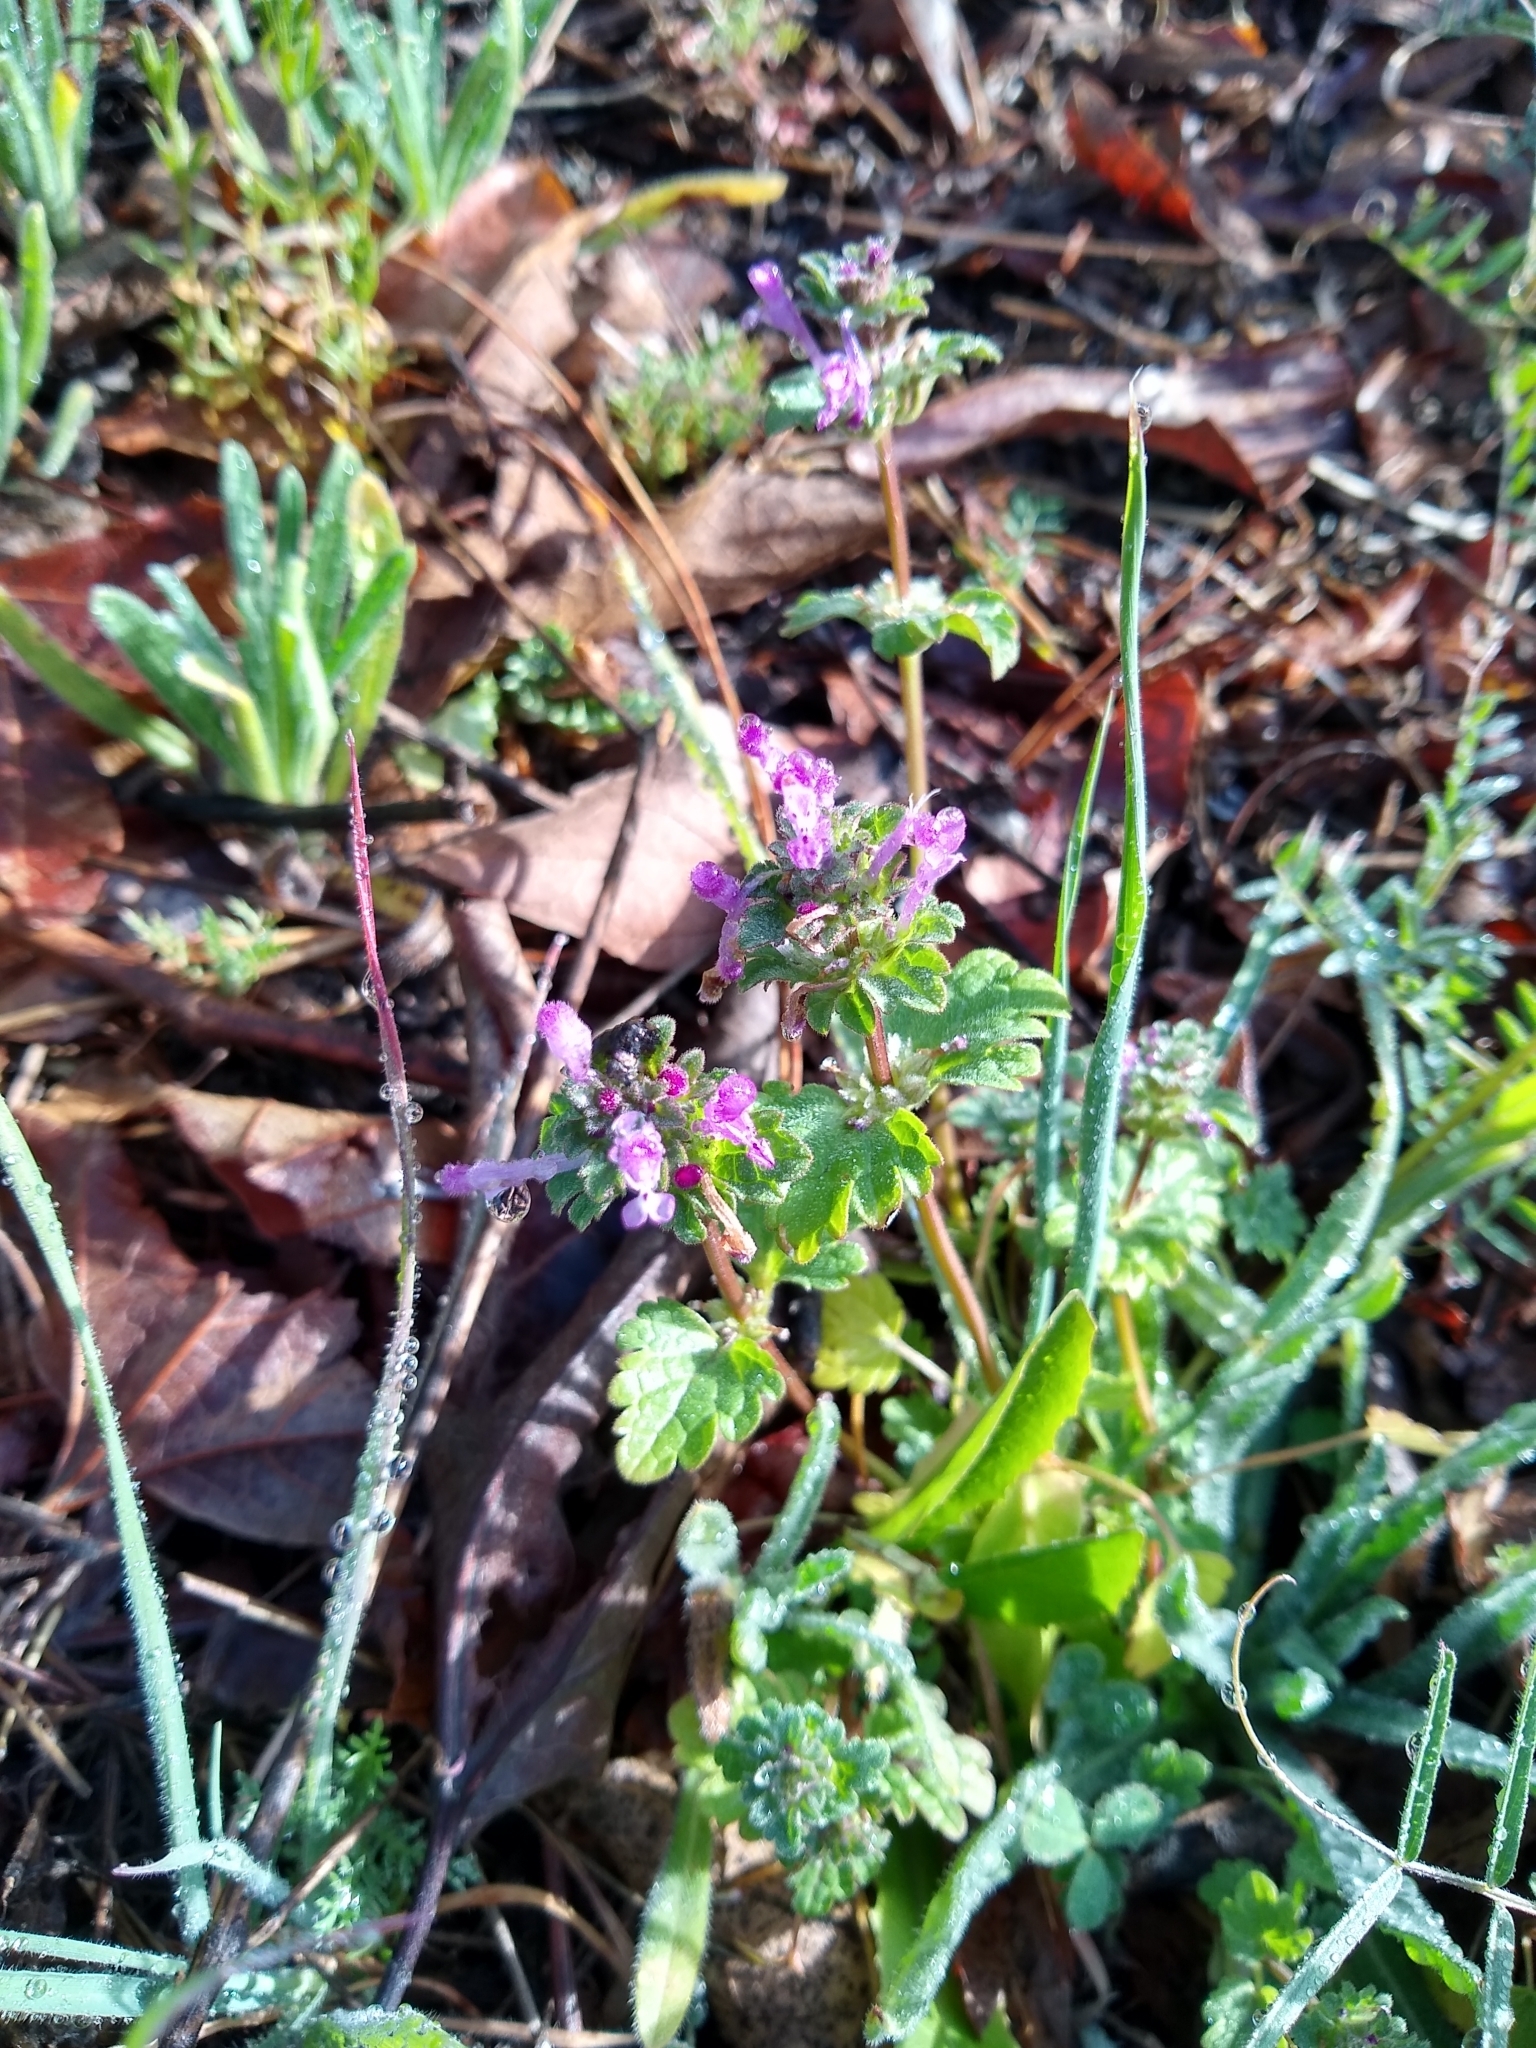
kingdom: Plantae
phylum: Tracheophyta
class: Magnoliopsida
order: Lamiales
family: Lamiaceae
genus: Lamium
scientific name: Lamium amplexicaule
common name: Henbit dead-nettle
